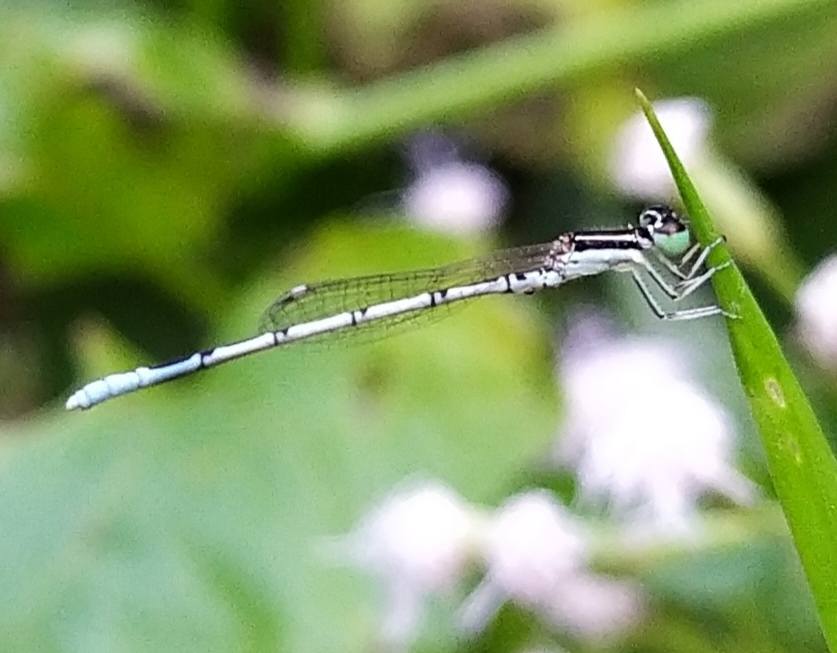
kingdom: Animalia
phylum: Arthropoda
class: Insecta
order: Odonata
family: Coenagrionidae
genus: Agriocnemis
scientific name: Agriocnemis pieris
